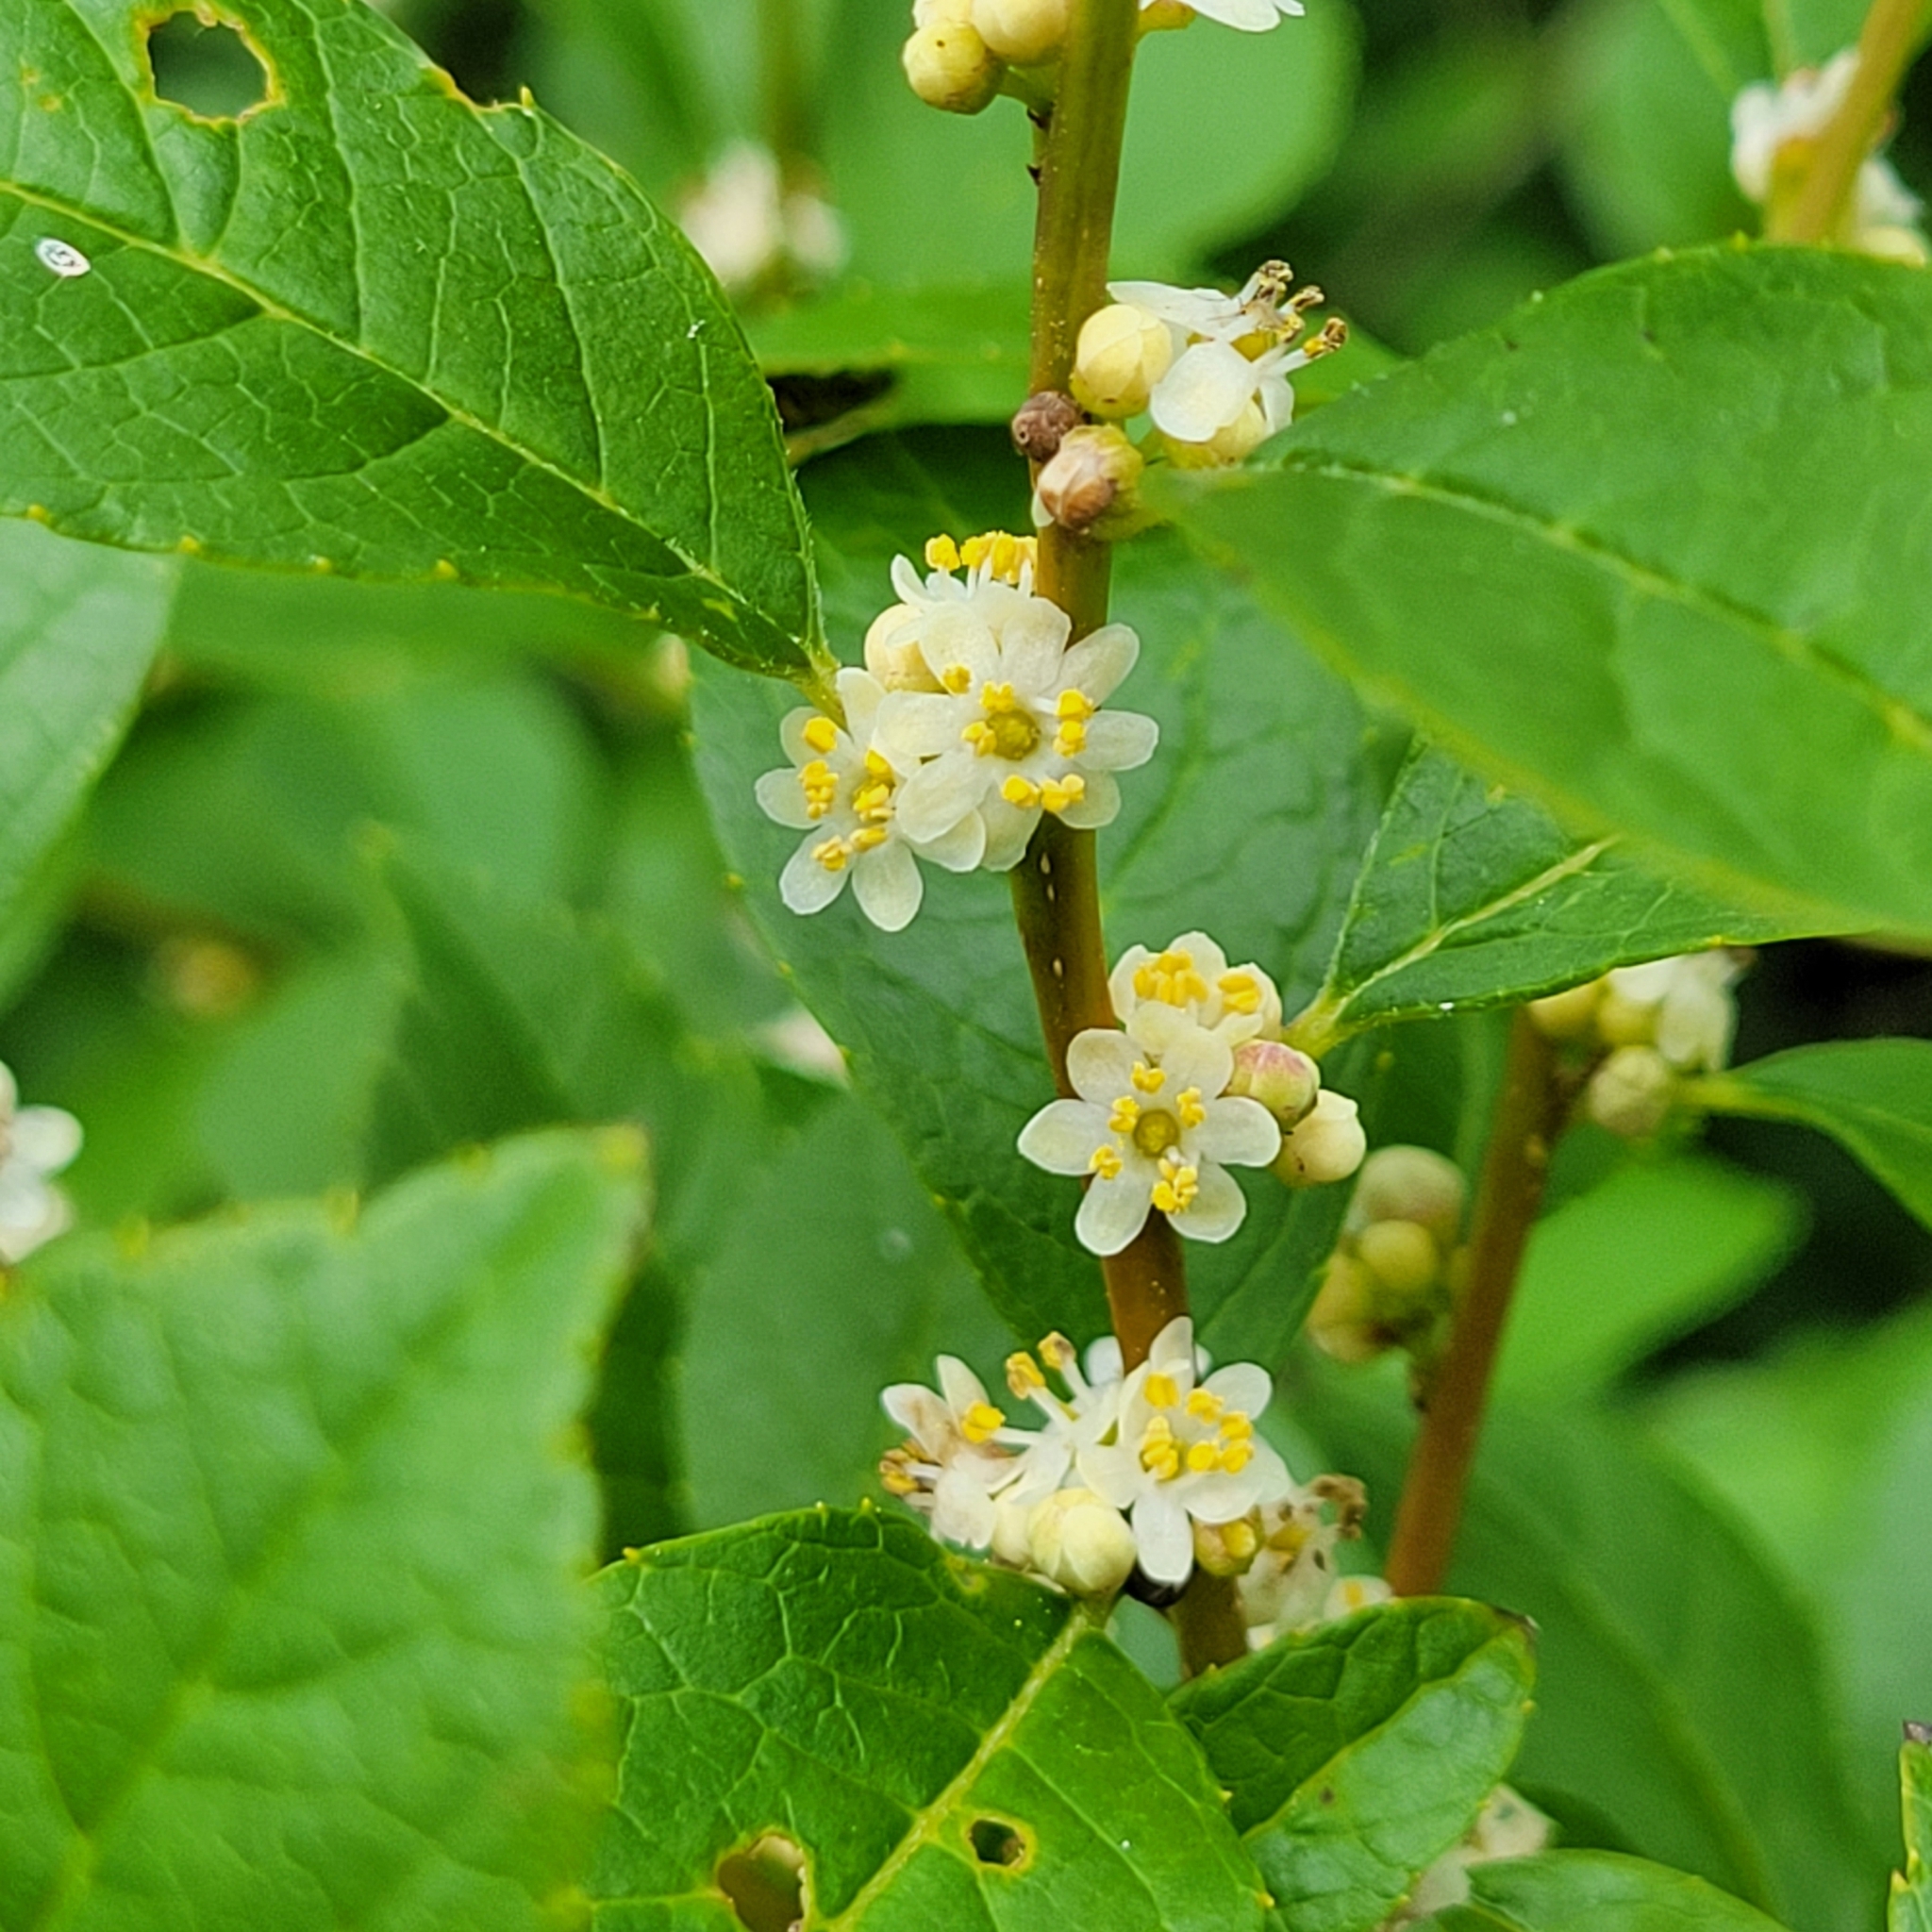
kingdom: Plantae
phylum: Tracheophyta
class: Magnoliopsida
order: Aquifoliales
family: Aquifoliaceae
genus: Ilex
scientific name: Ilex verticillata
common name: Virginia winterberry
